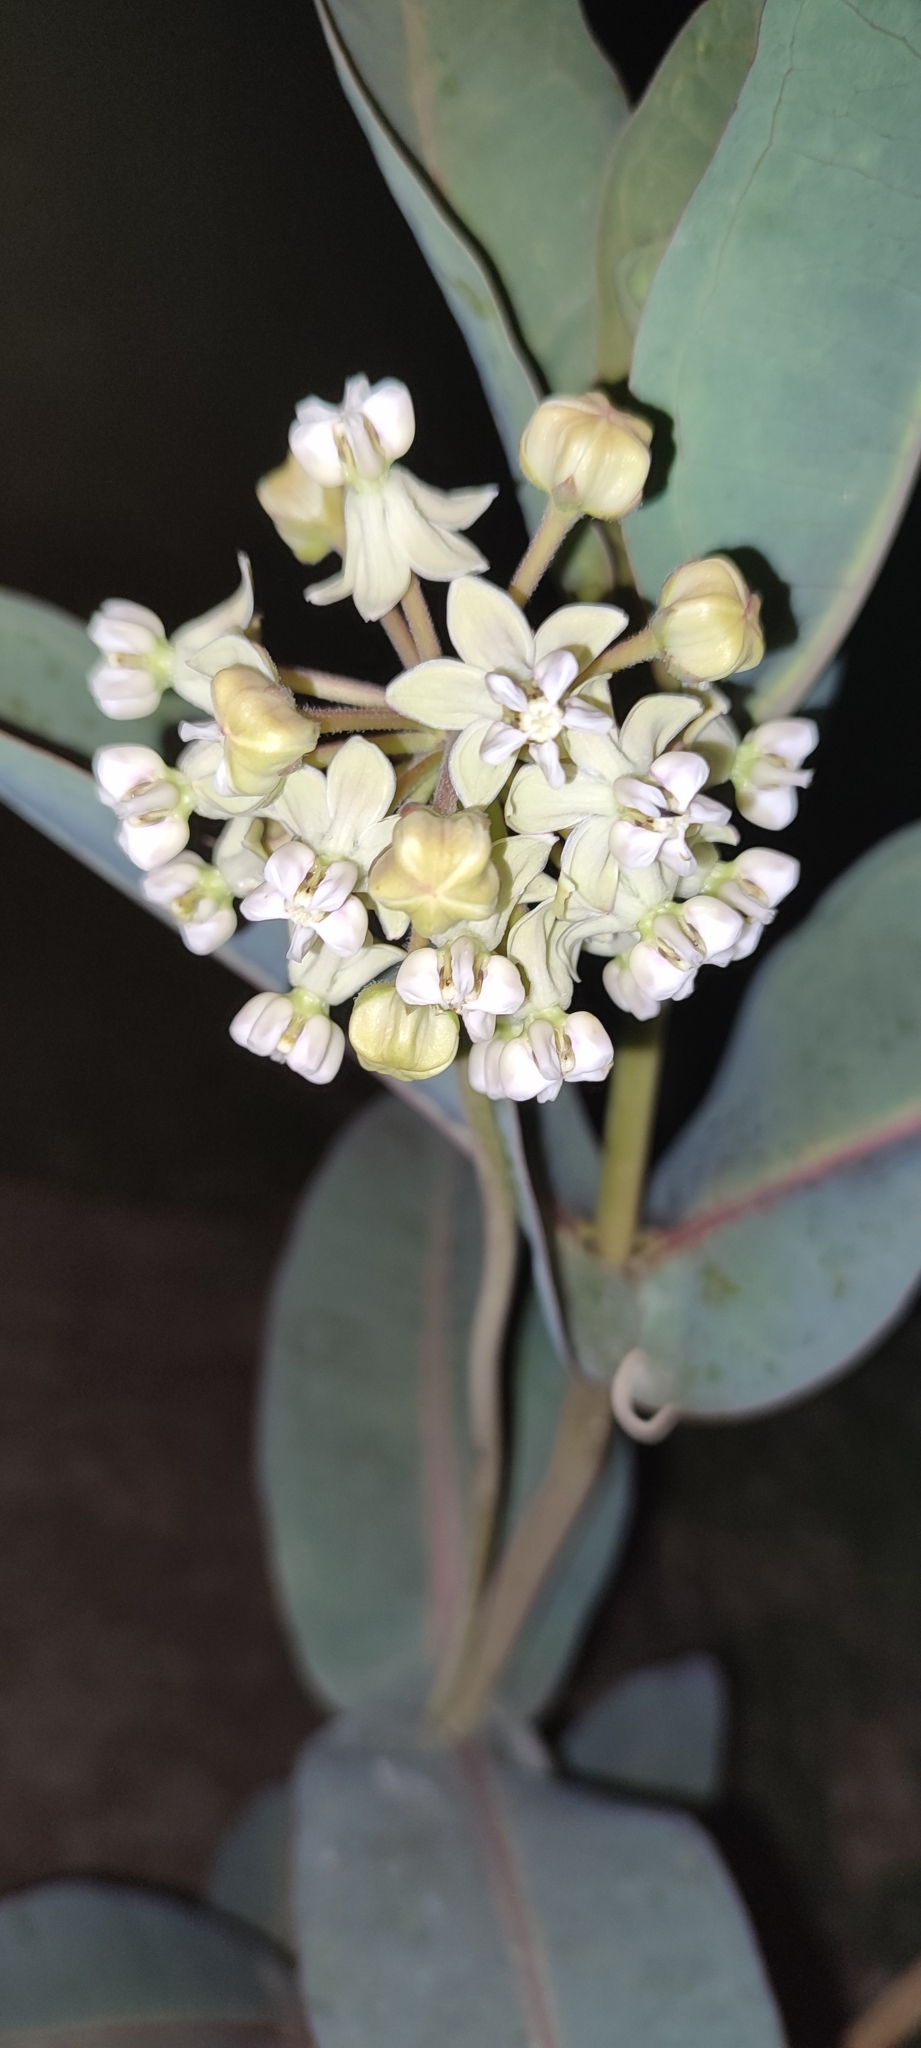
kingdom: Plantae
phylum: Tracheophyta
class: Magnoliopsida
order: Gentianales
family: Apocynaceae
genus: Asclepias
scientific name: Asclepias glaucescens
